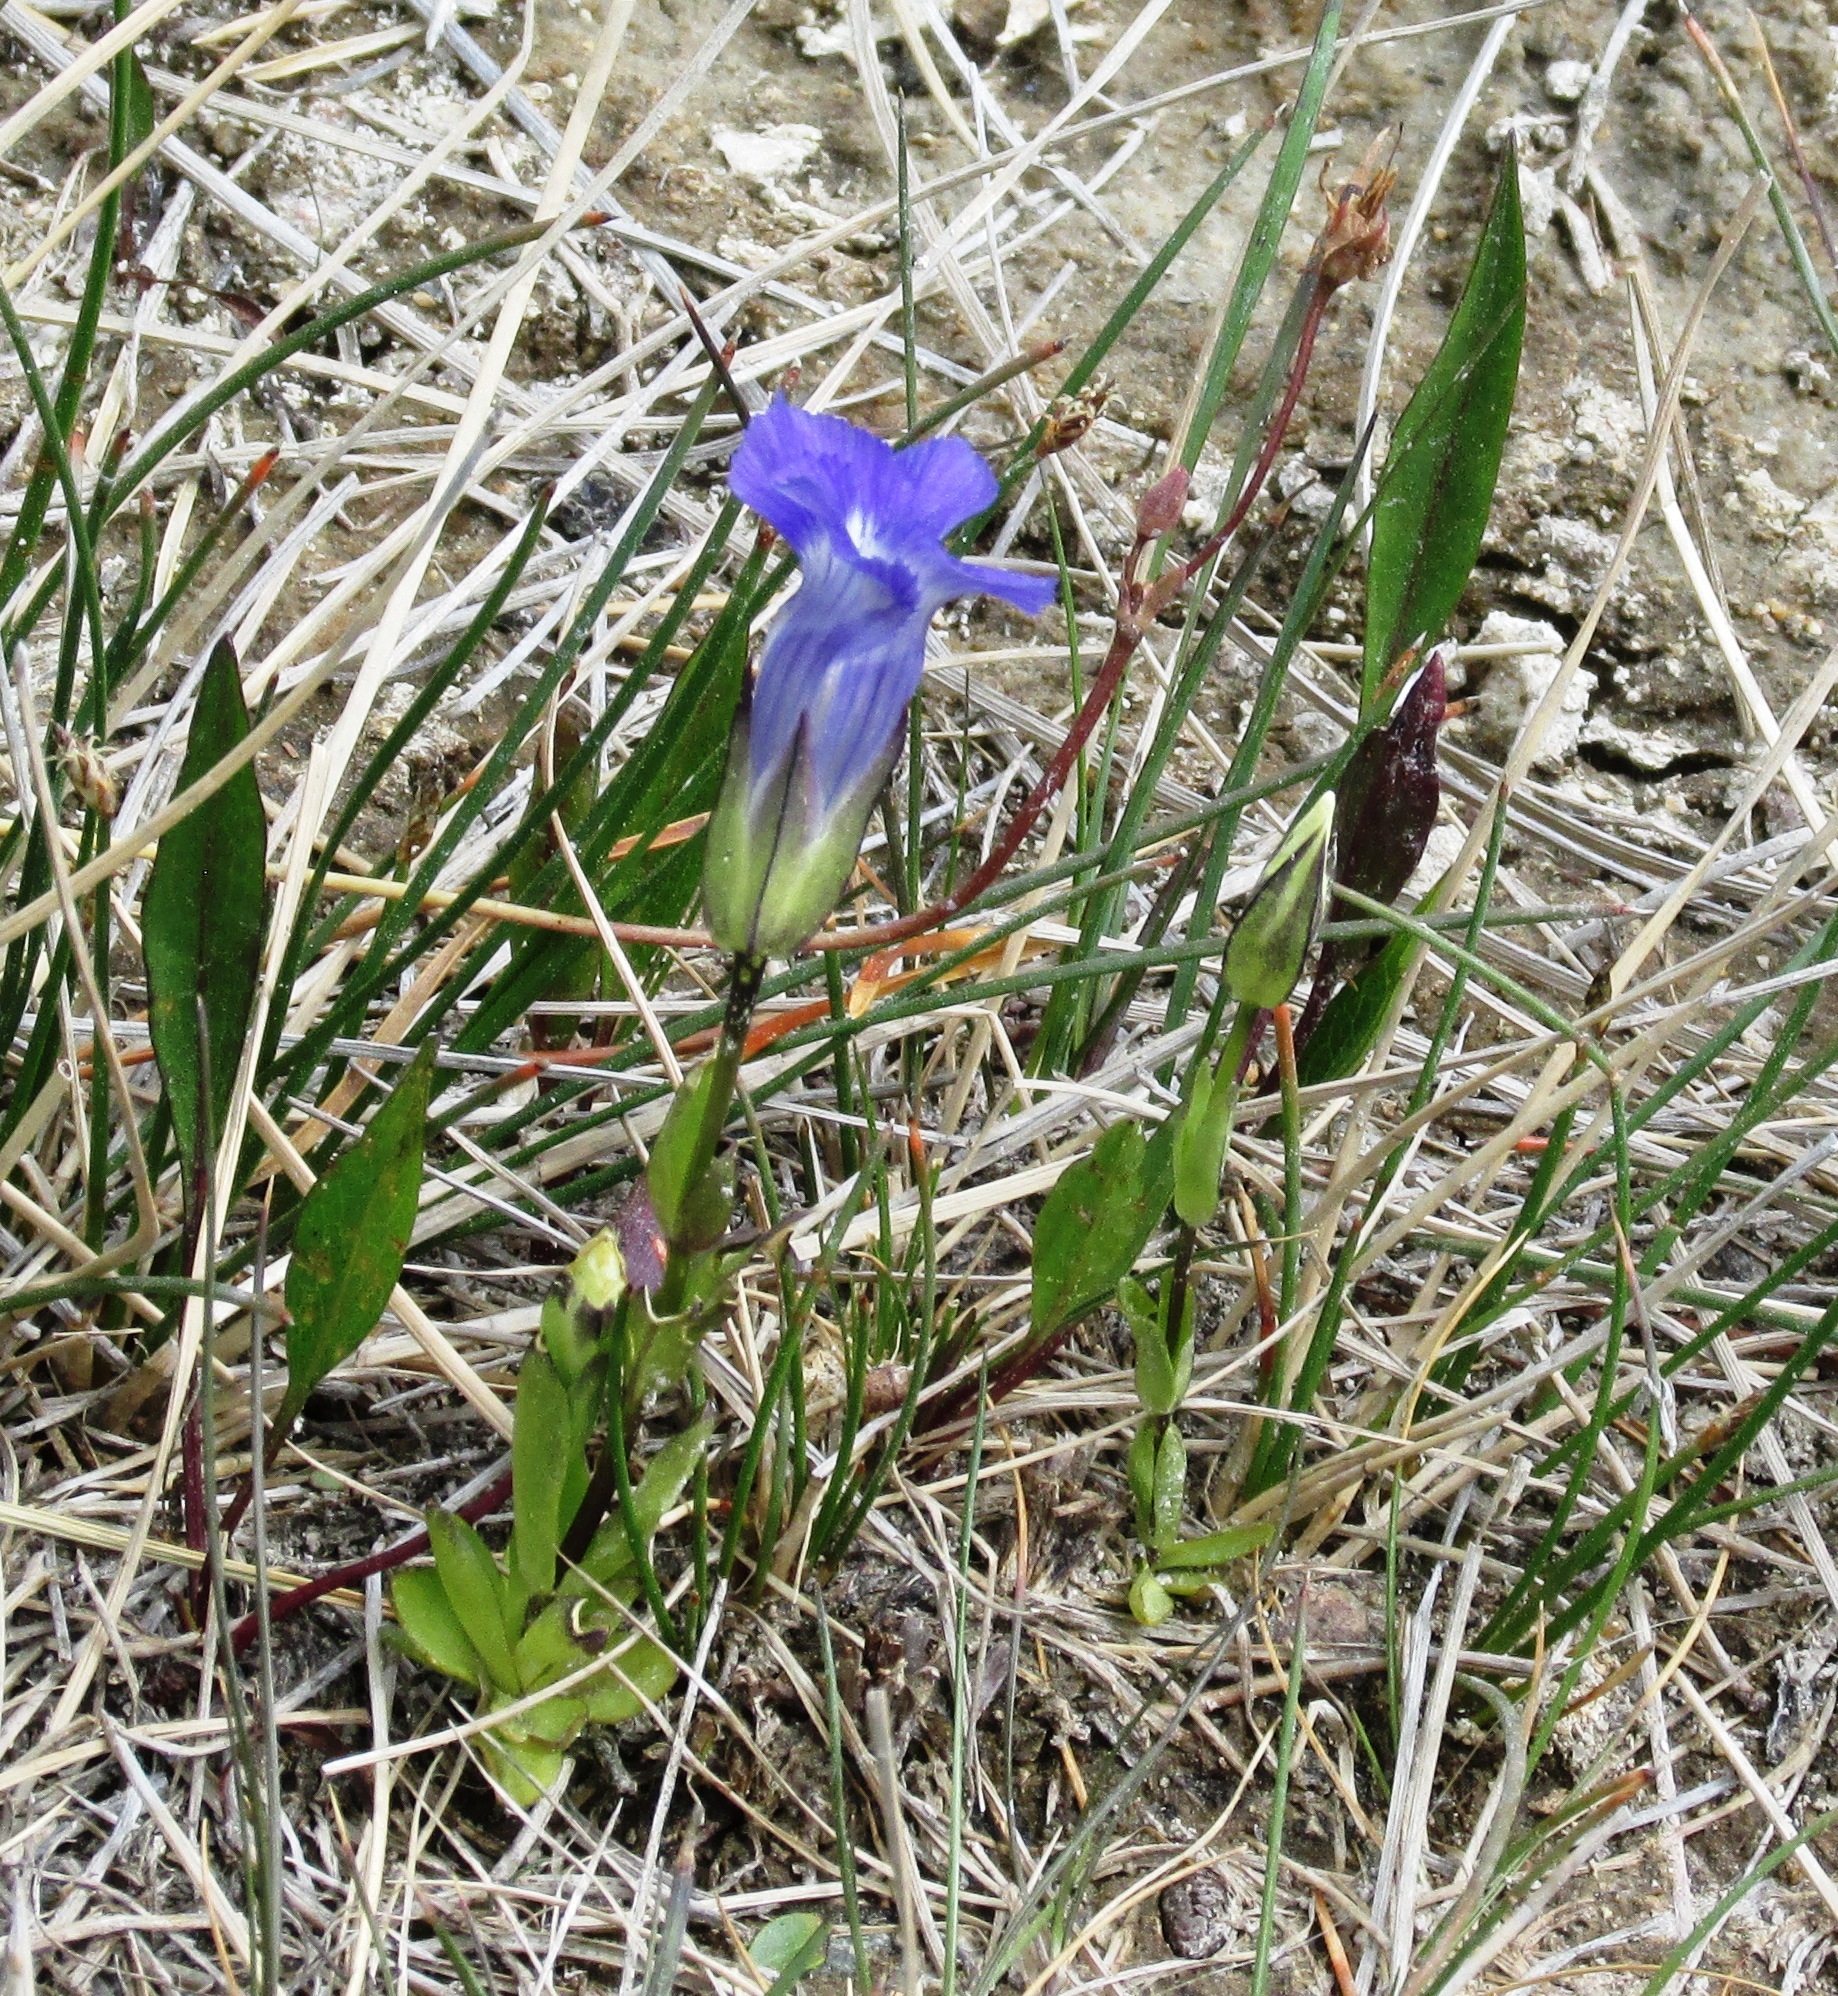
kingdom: Plantae
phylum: Tracheophyta
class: Magnoliopsida
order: Gentianales
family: Gentianaceae
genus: Gentianopsis
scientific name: Gentianopsis thermalis
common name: Rocky mountain fringed-gentian
